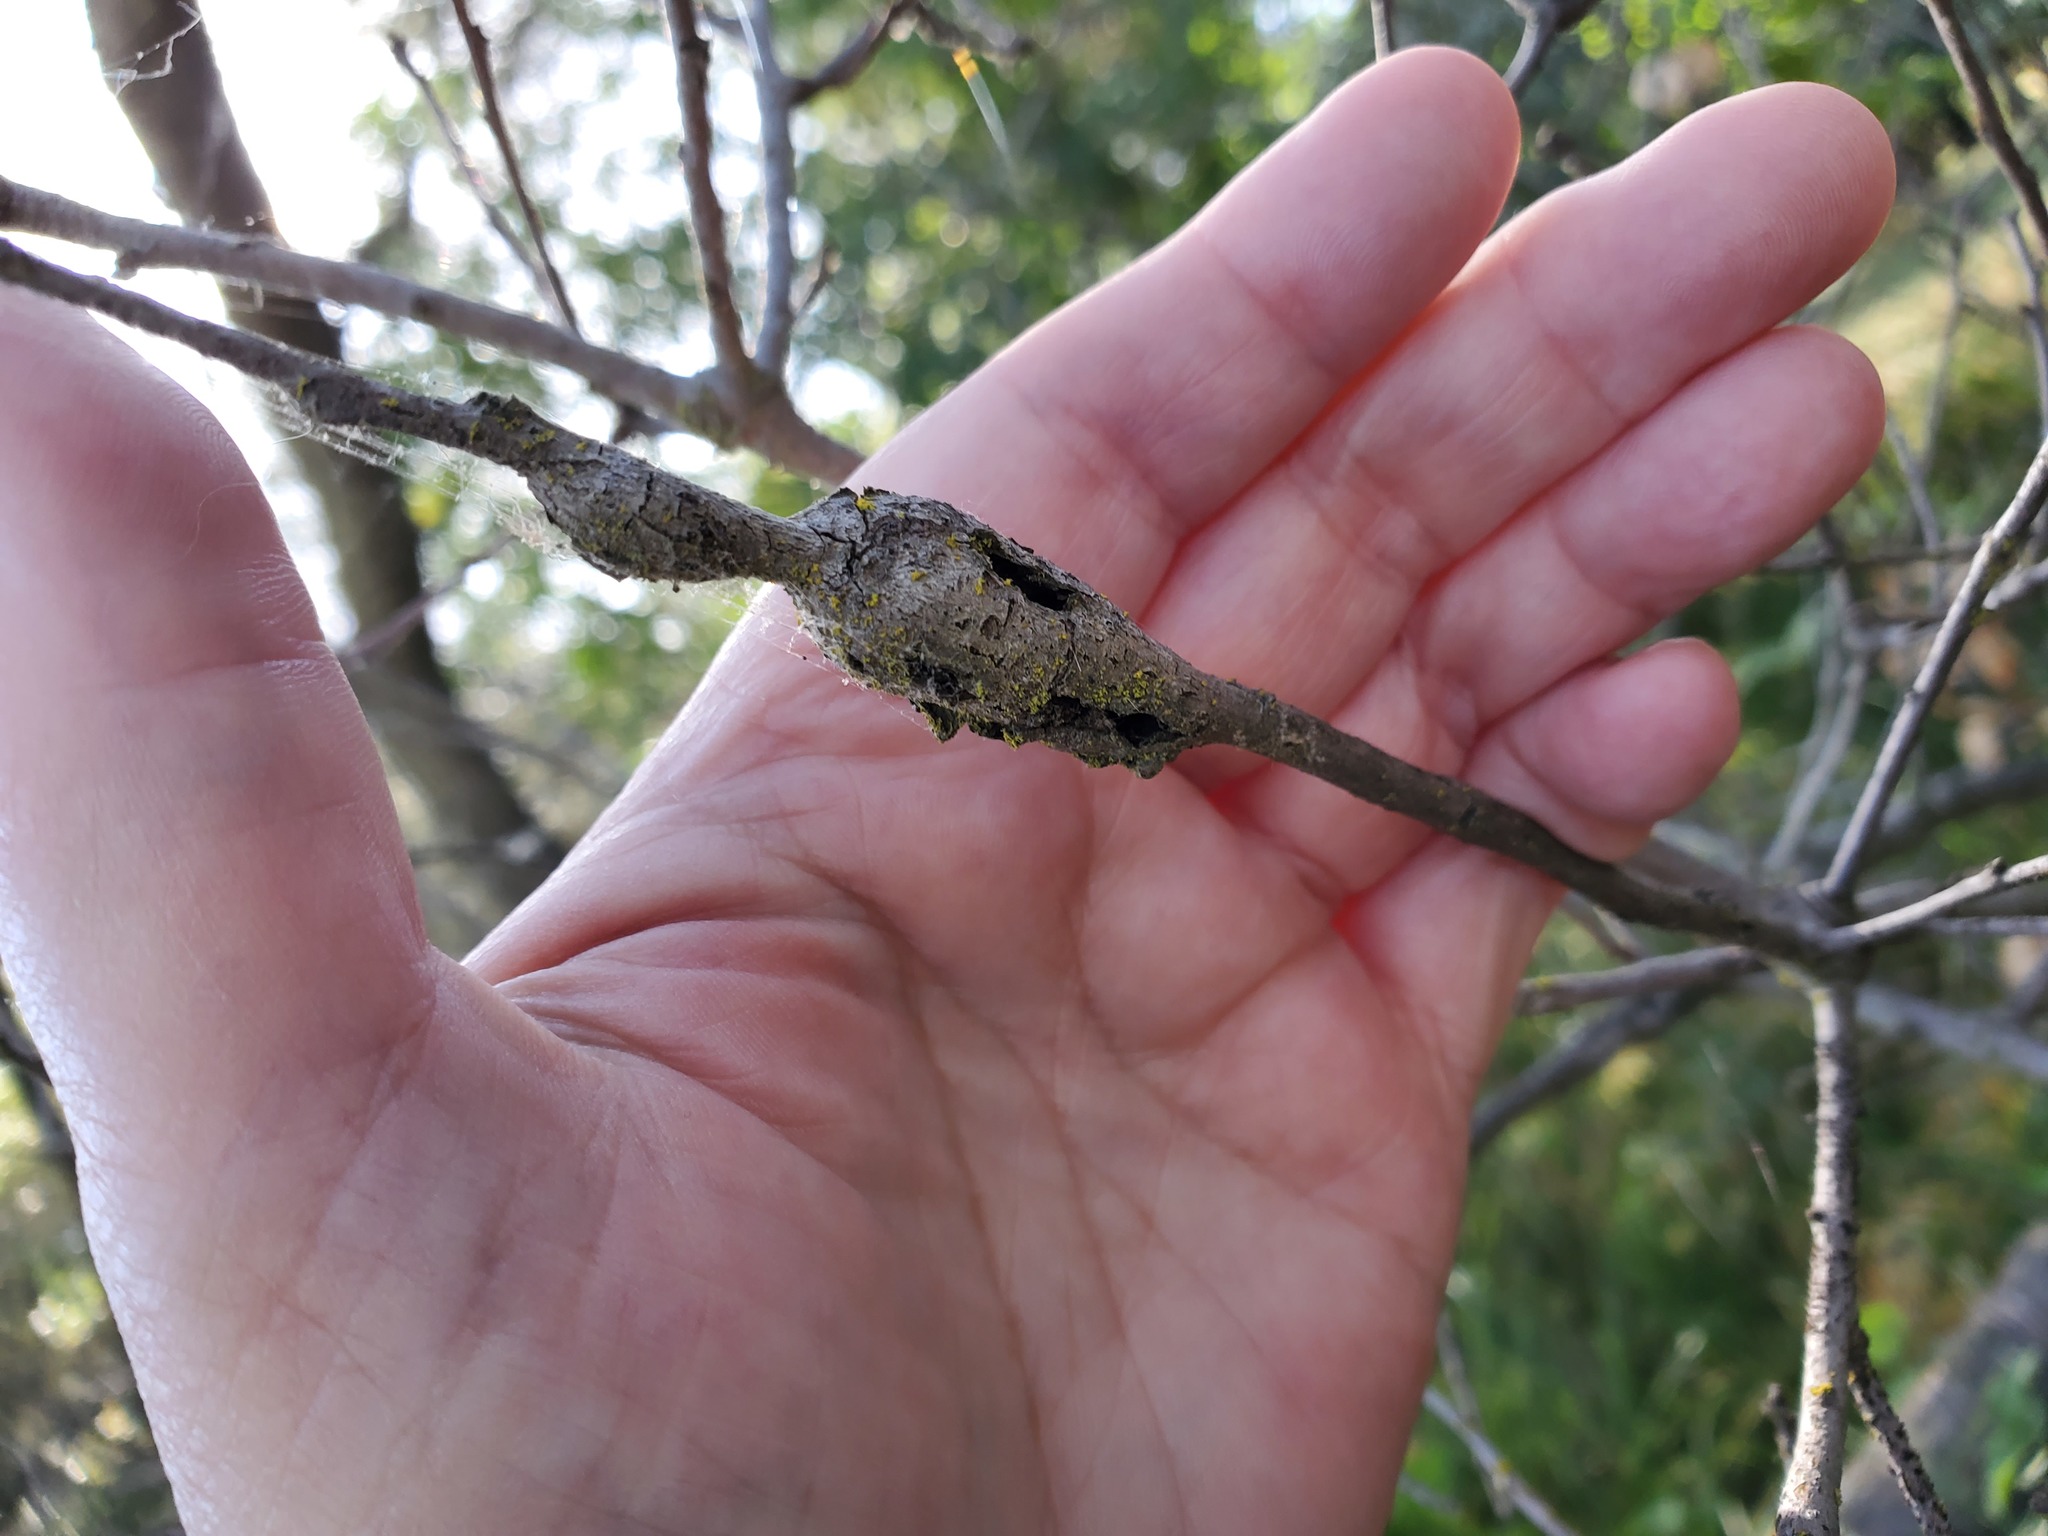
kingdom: Animalia
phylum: Arthropoda
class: Insecta
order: Hymenoptera
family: Cynipidae
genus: Callirhytis
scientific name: Callirhytis
